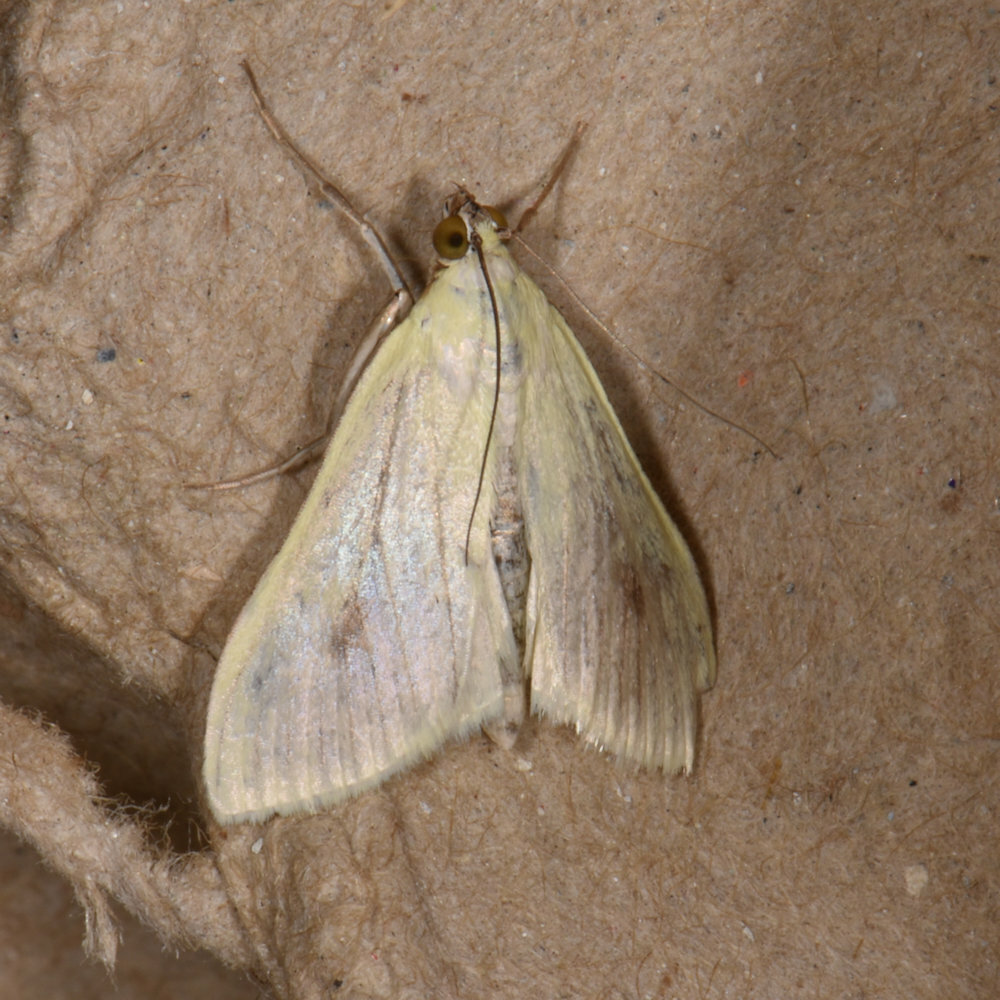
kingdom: Animalia
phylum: Arthropoda
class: Insecta
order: Lepidoptera
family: Crambidae
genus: Sitochroa
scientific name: Sitochroa palealis
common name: Greenish-yellow sitochroa moth
